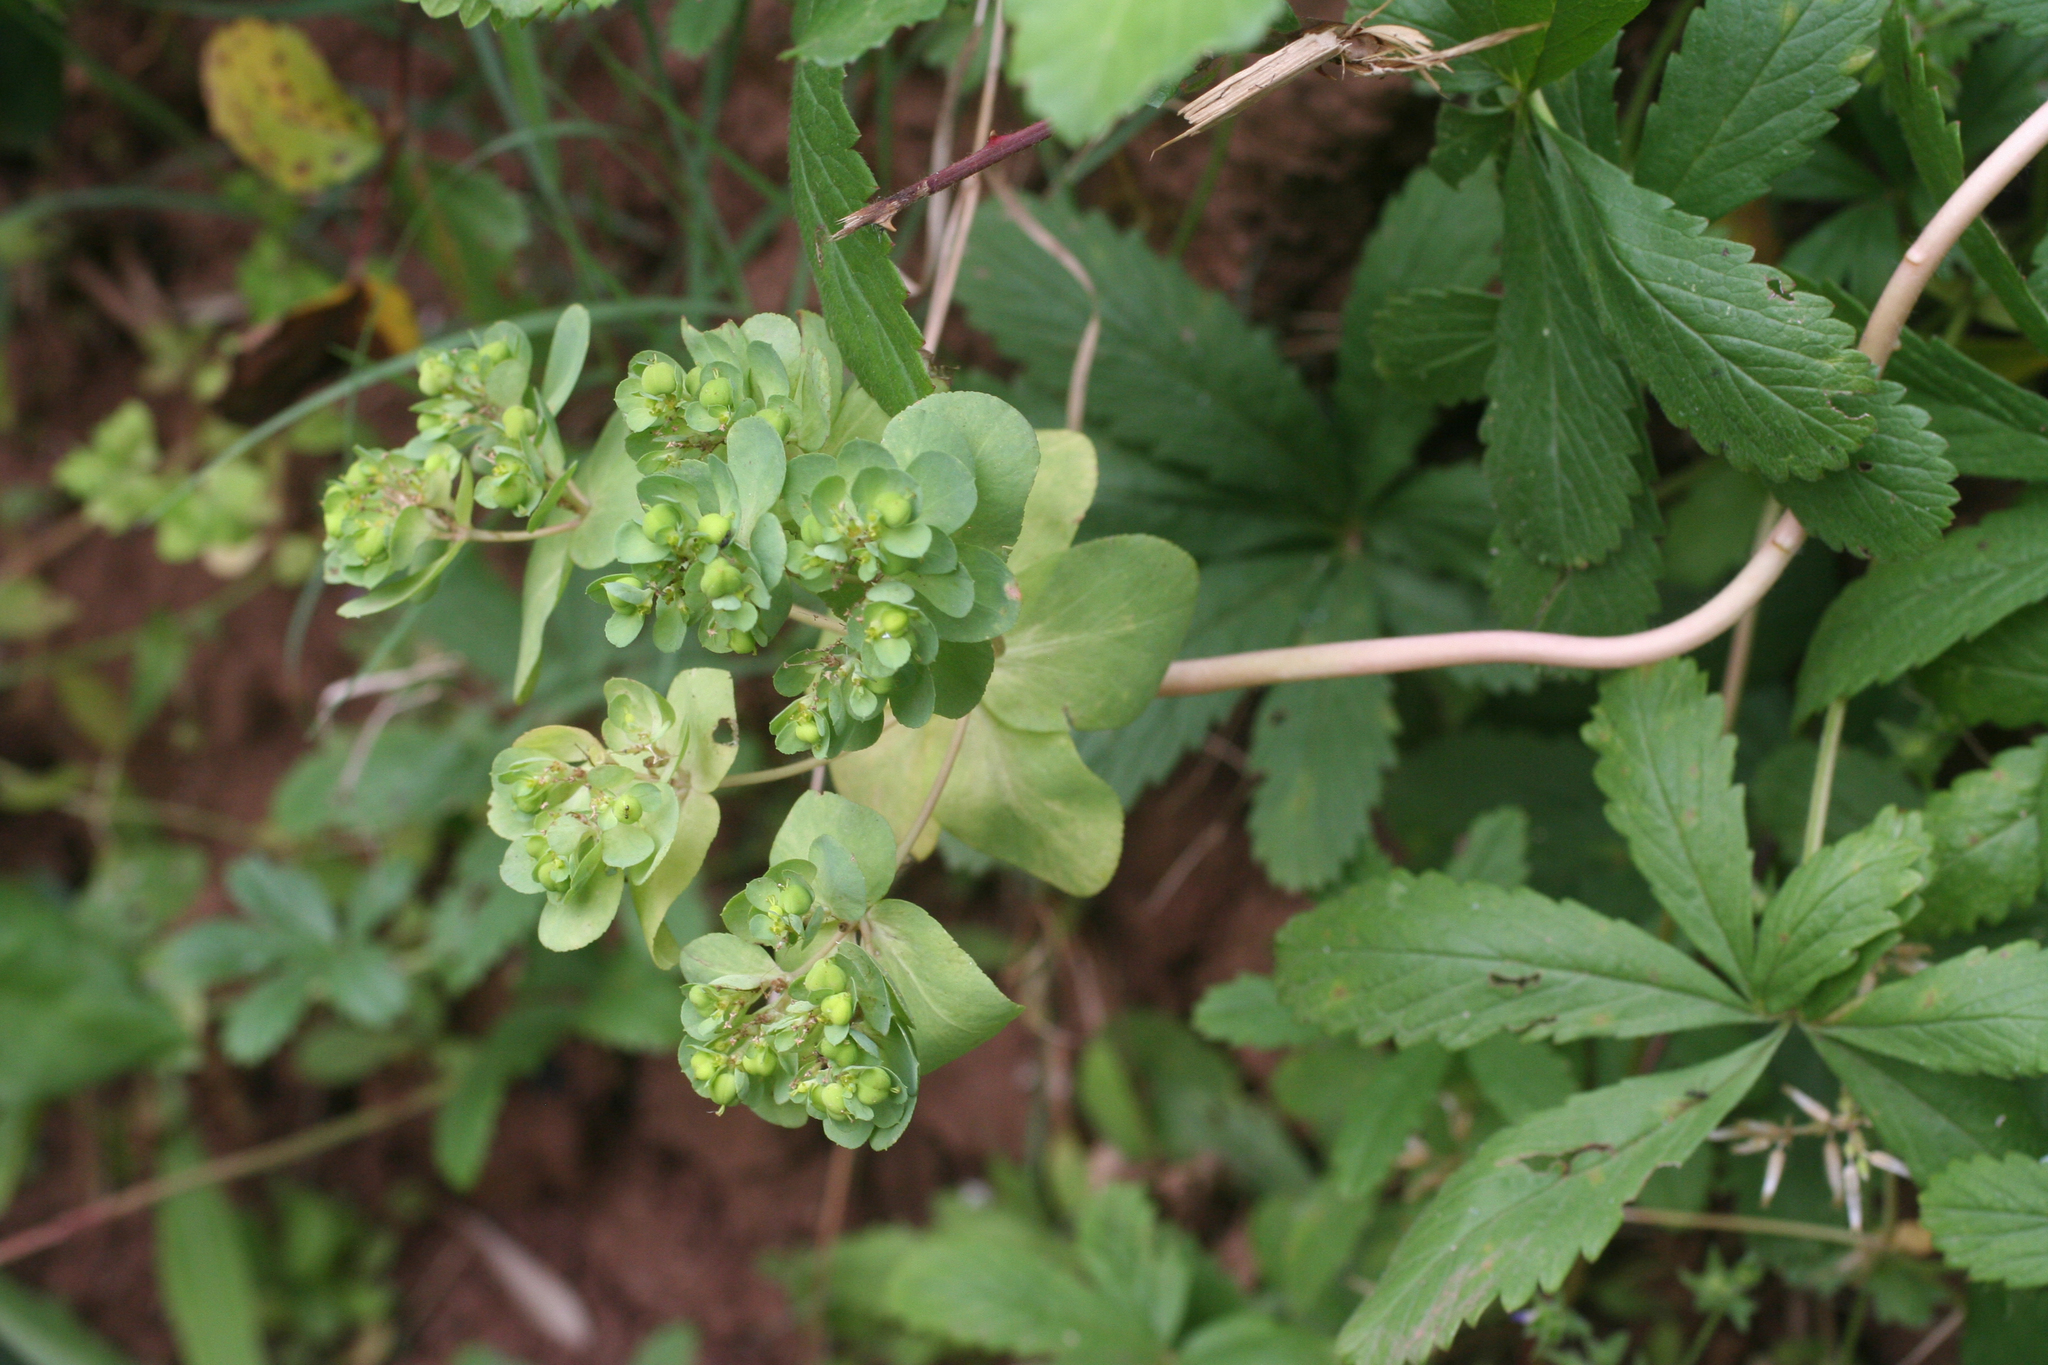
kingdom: Plantae
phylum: Tracheophyta
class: Magnoliopsida
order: Malpighiales
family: Euphorbiaceae
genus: Euphorbia
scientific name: Euphorbia helioscopia
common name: Sun spurge
